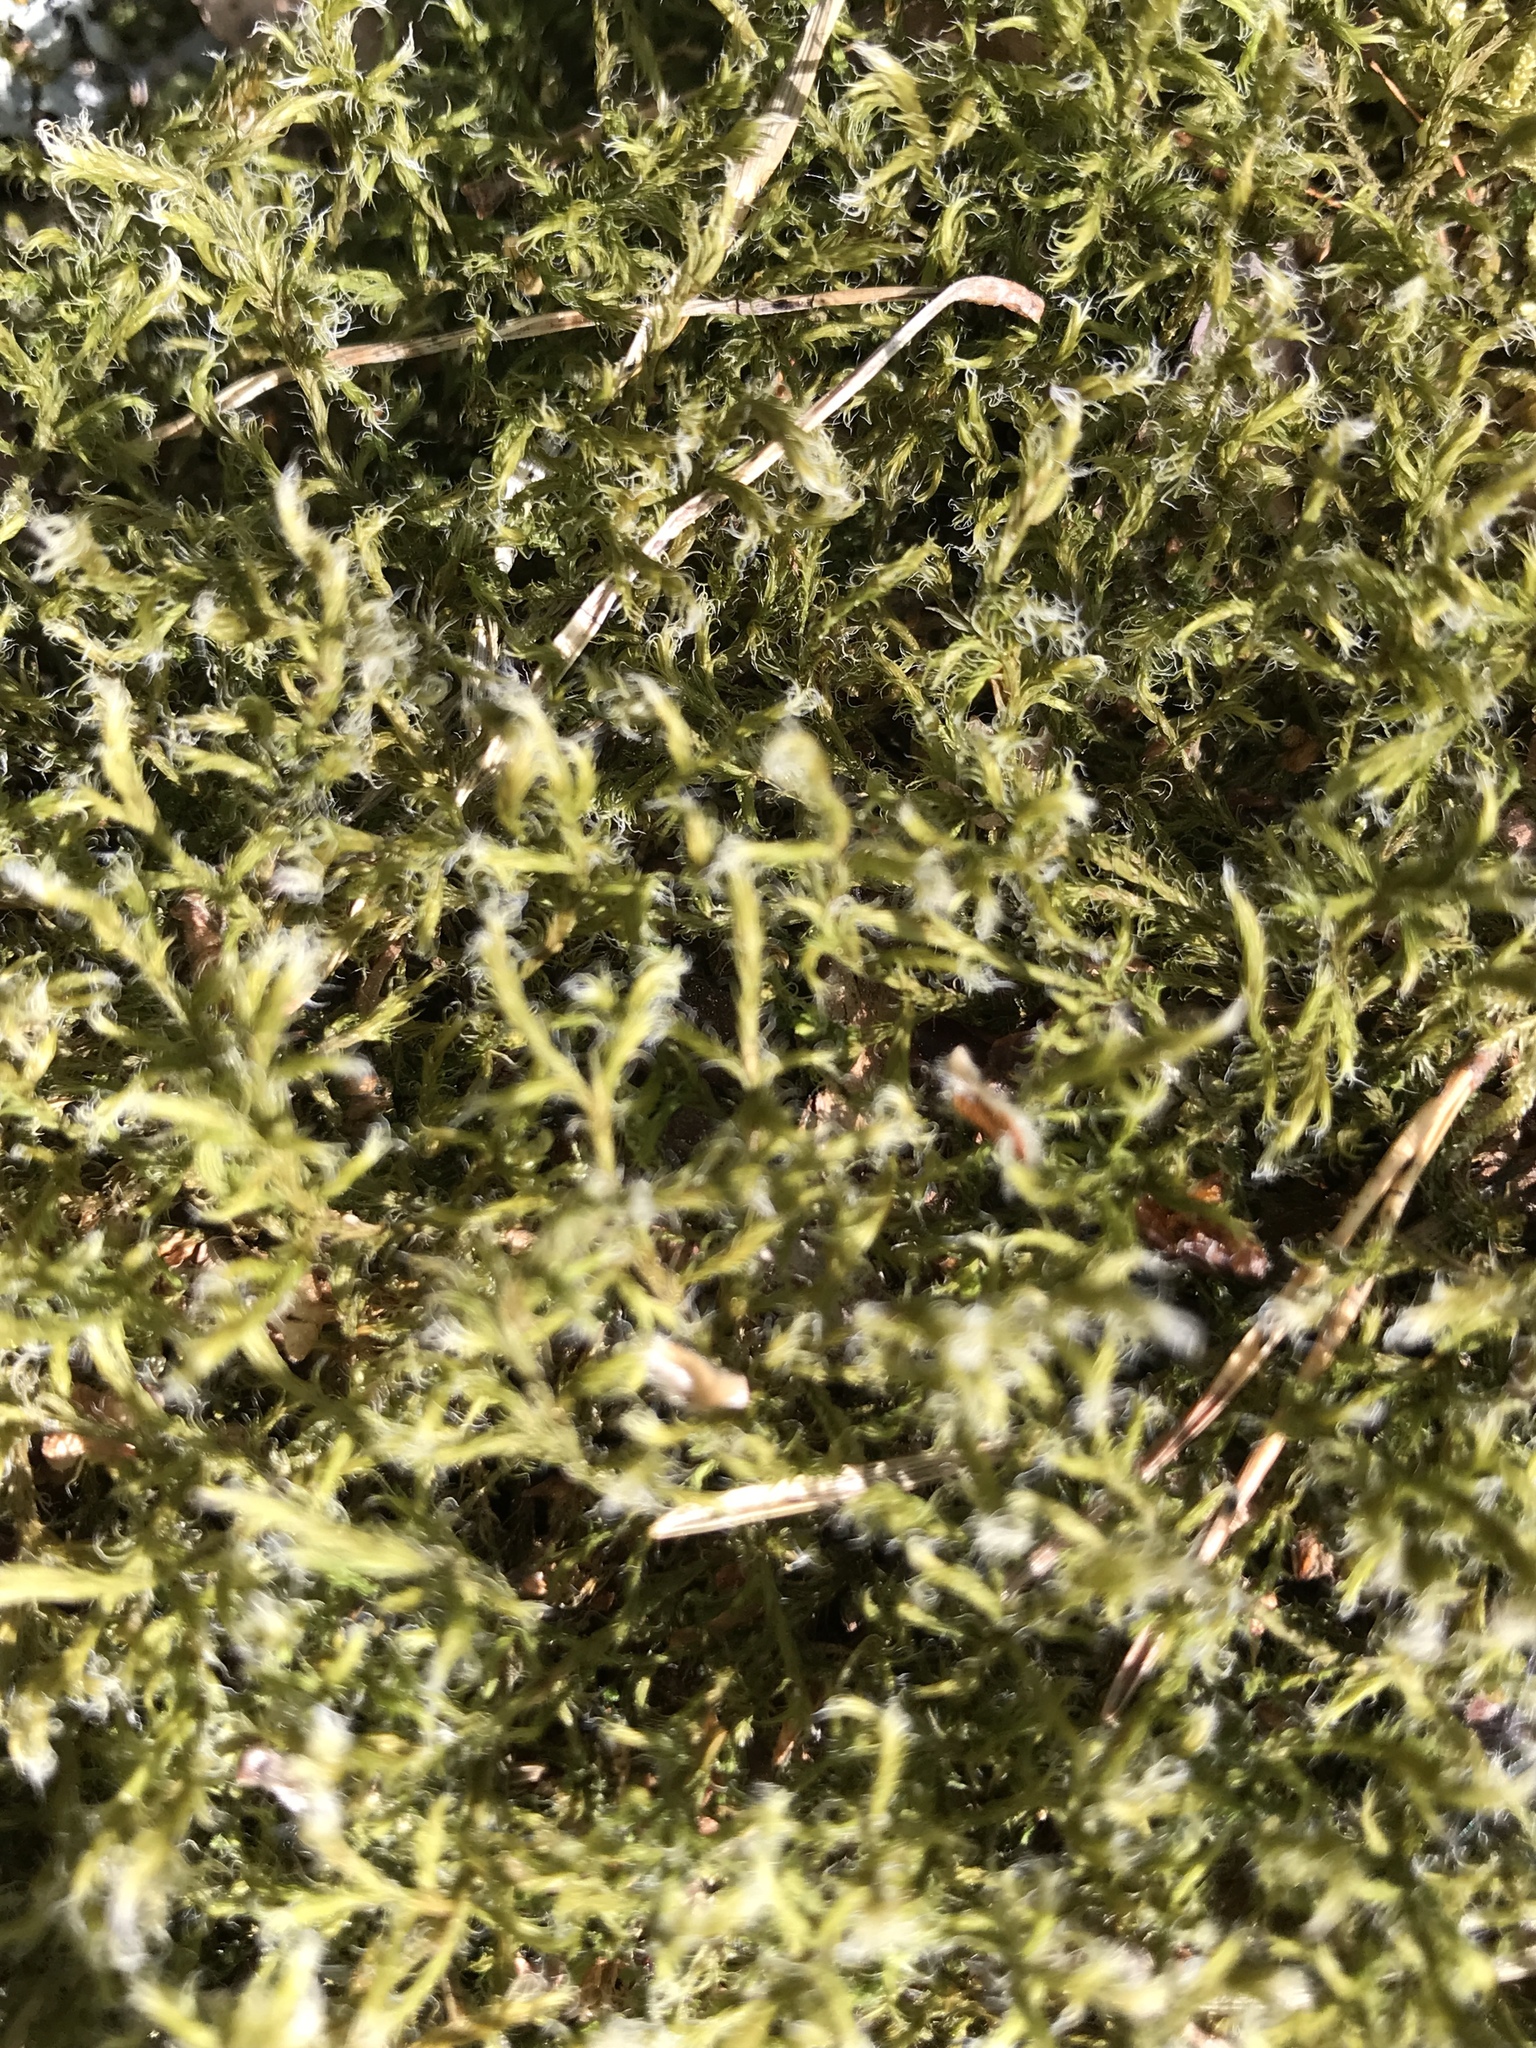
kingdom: Plantae
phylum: Bryophyta
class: Bryopsida
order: Grimmiales
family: Grimmiaceae
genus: Racomitrium
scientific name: Racomitrium lanuginosum
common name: Hoary rock moss
